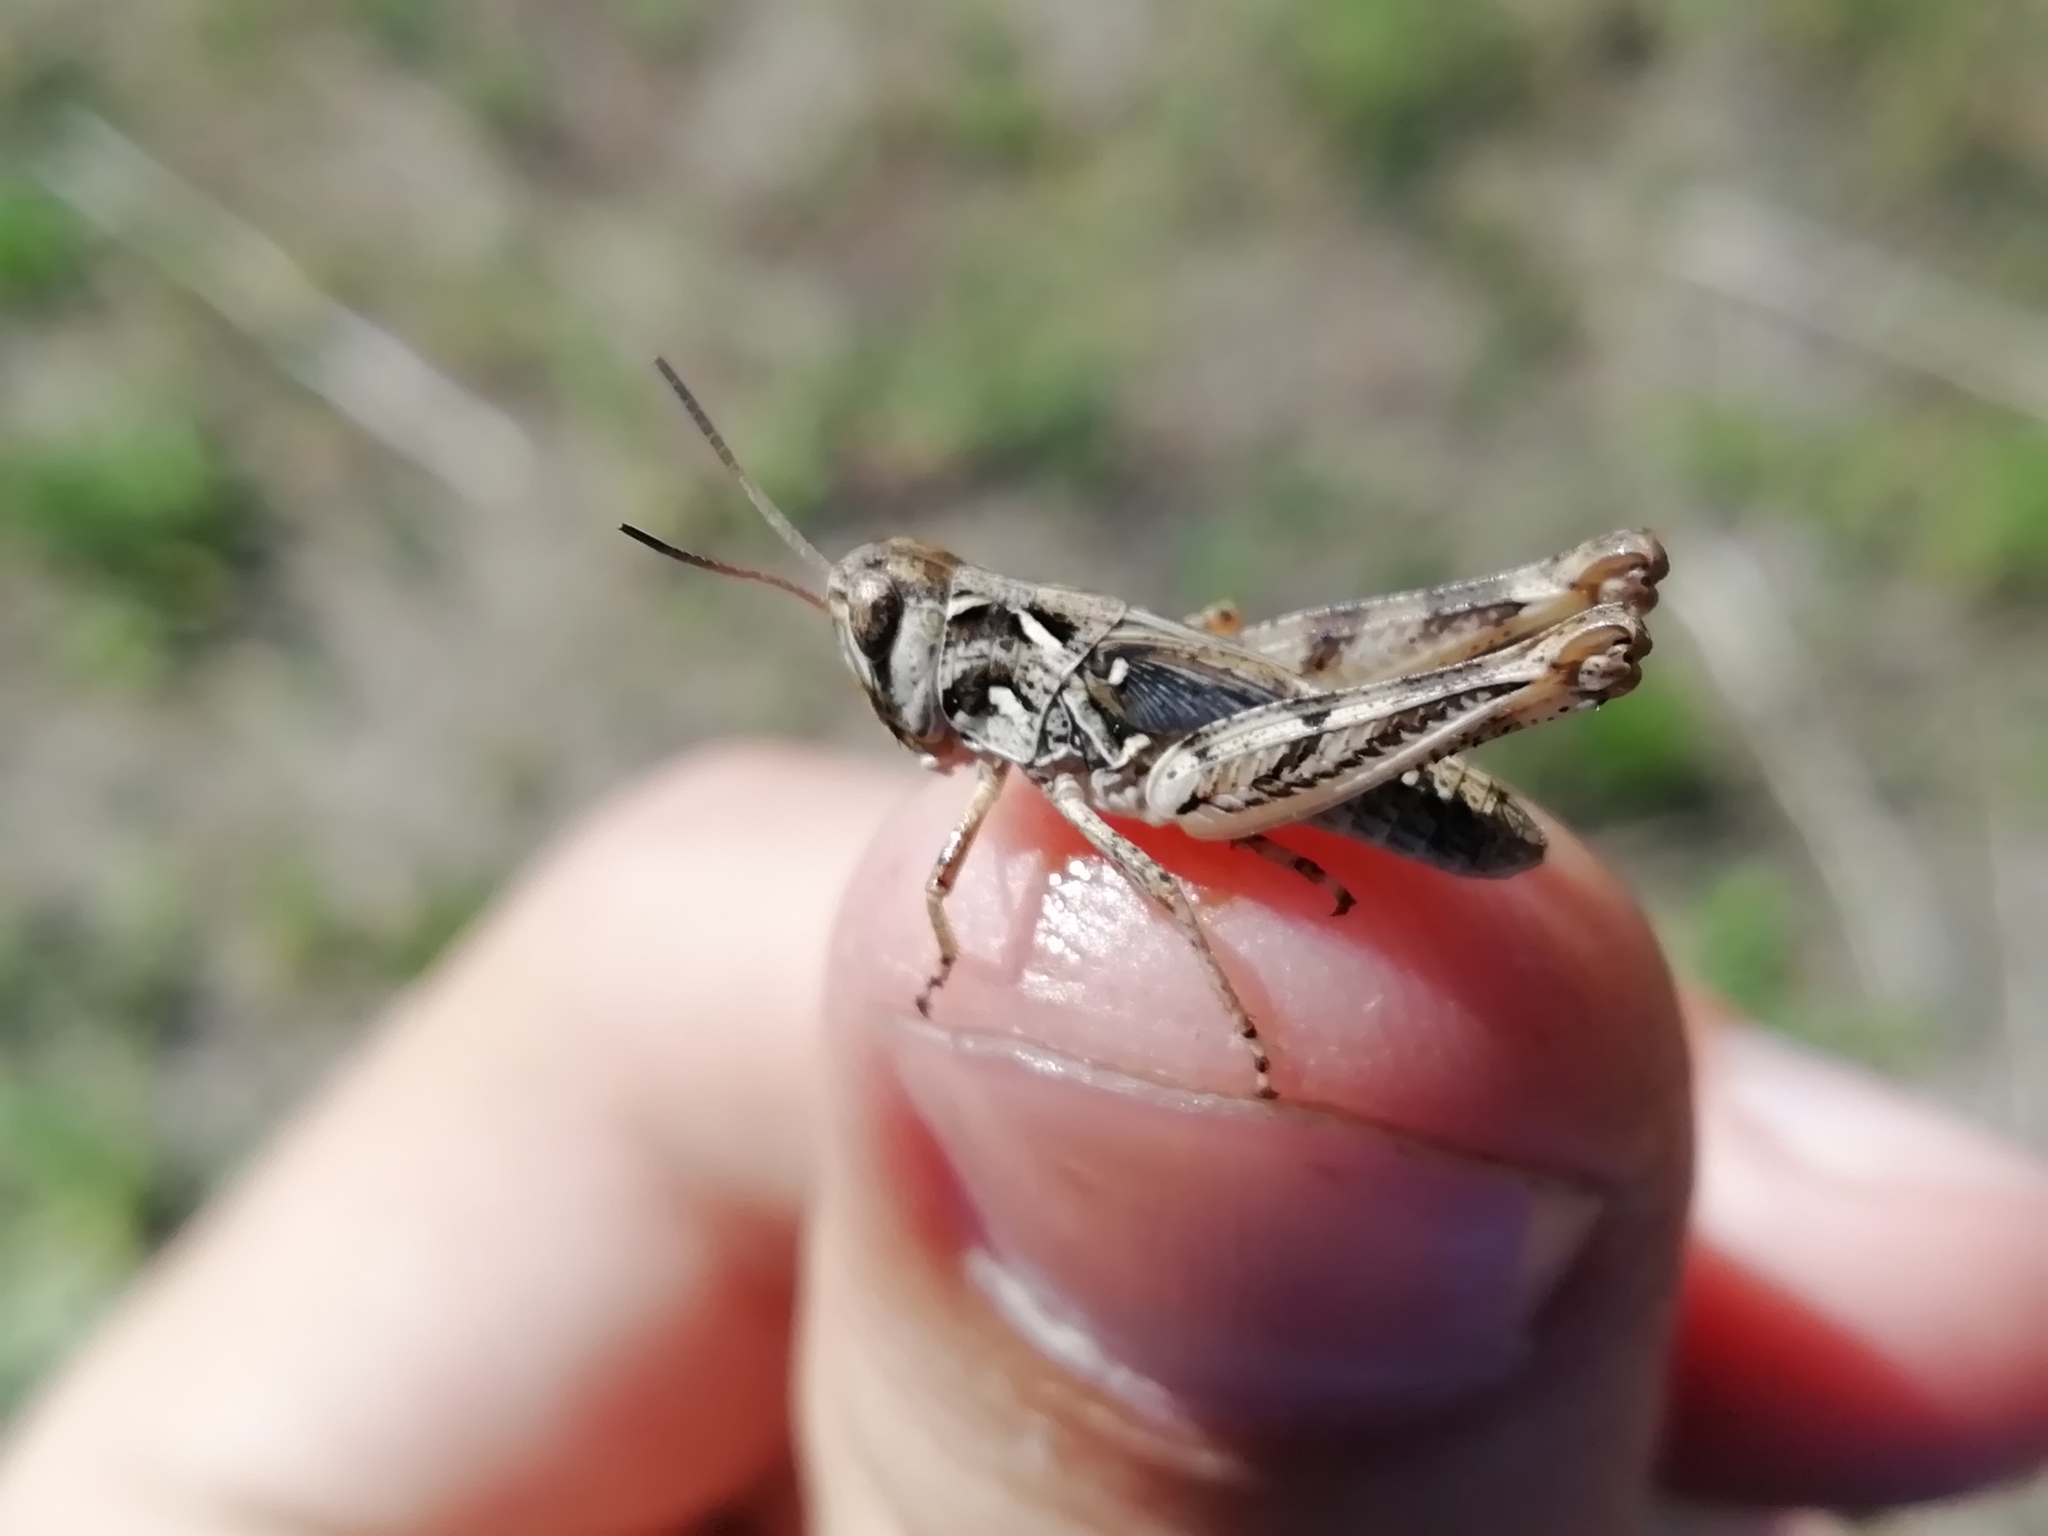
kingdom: Animalia
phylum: Arthropoda
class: Insecta
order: Orthoptera
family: Acrididae
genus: Dociostaurus
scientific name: Dociostaurus brevicollis
